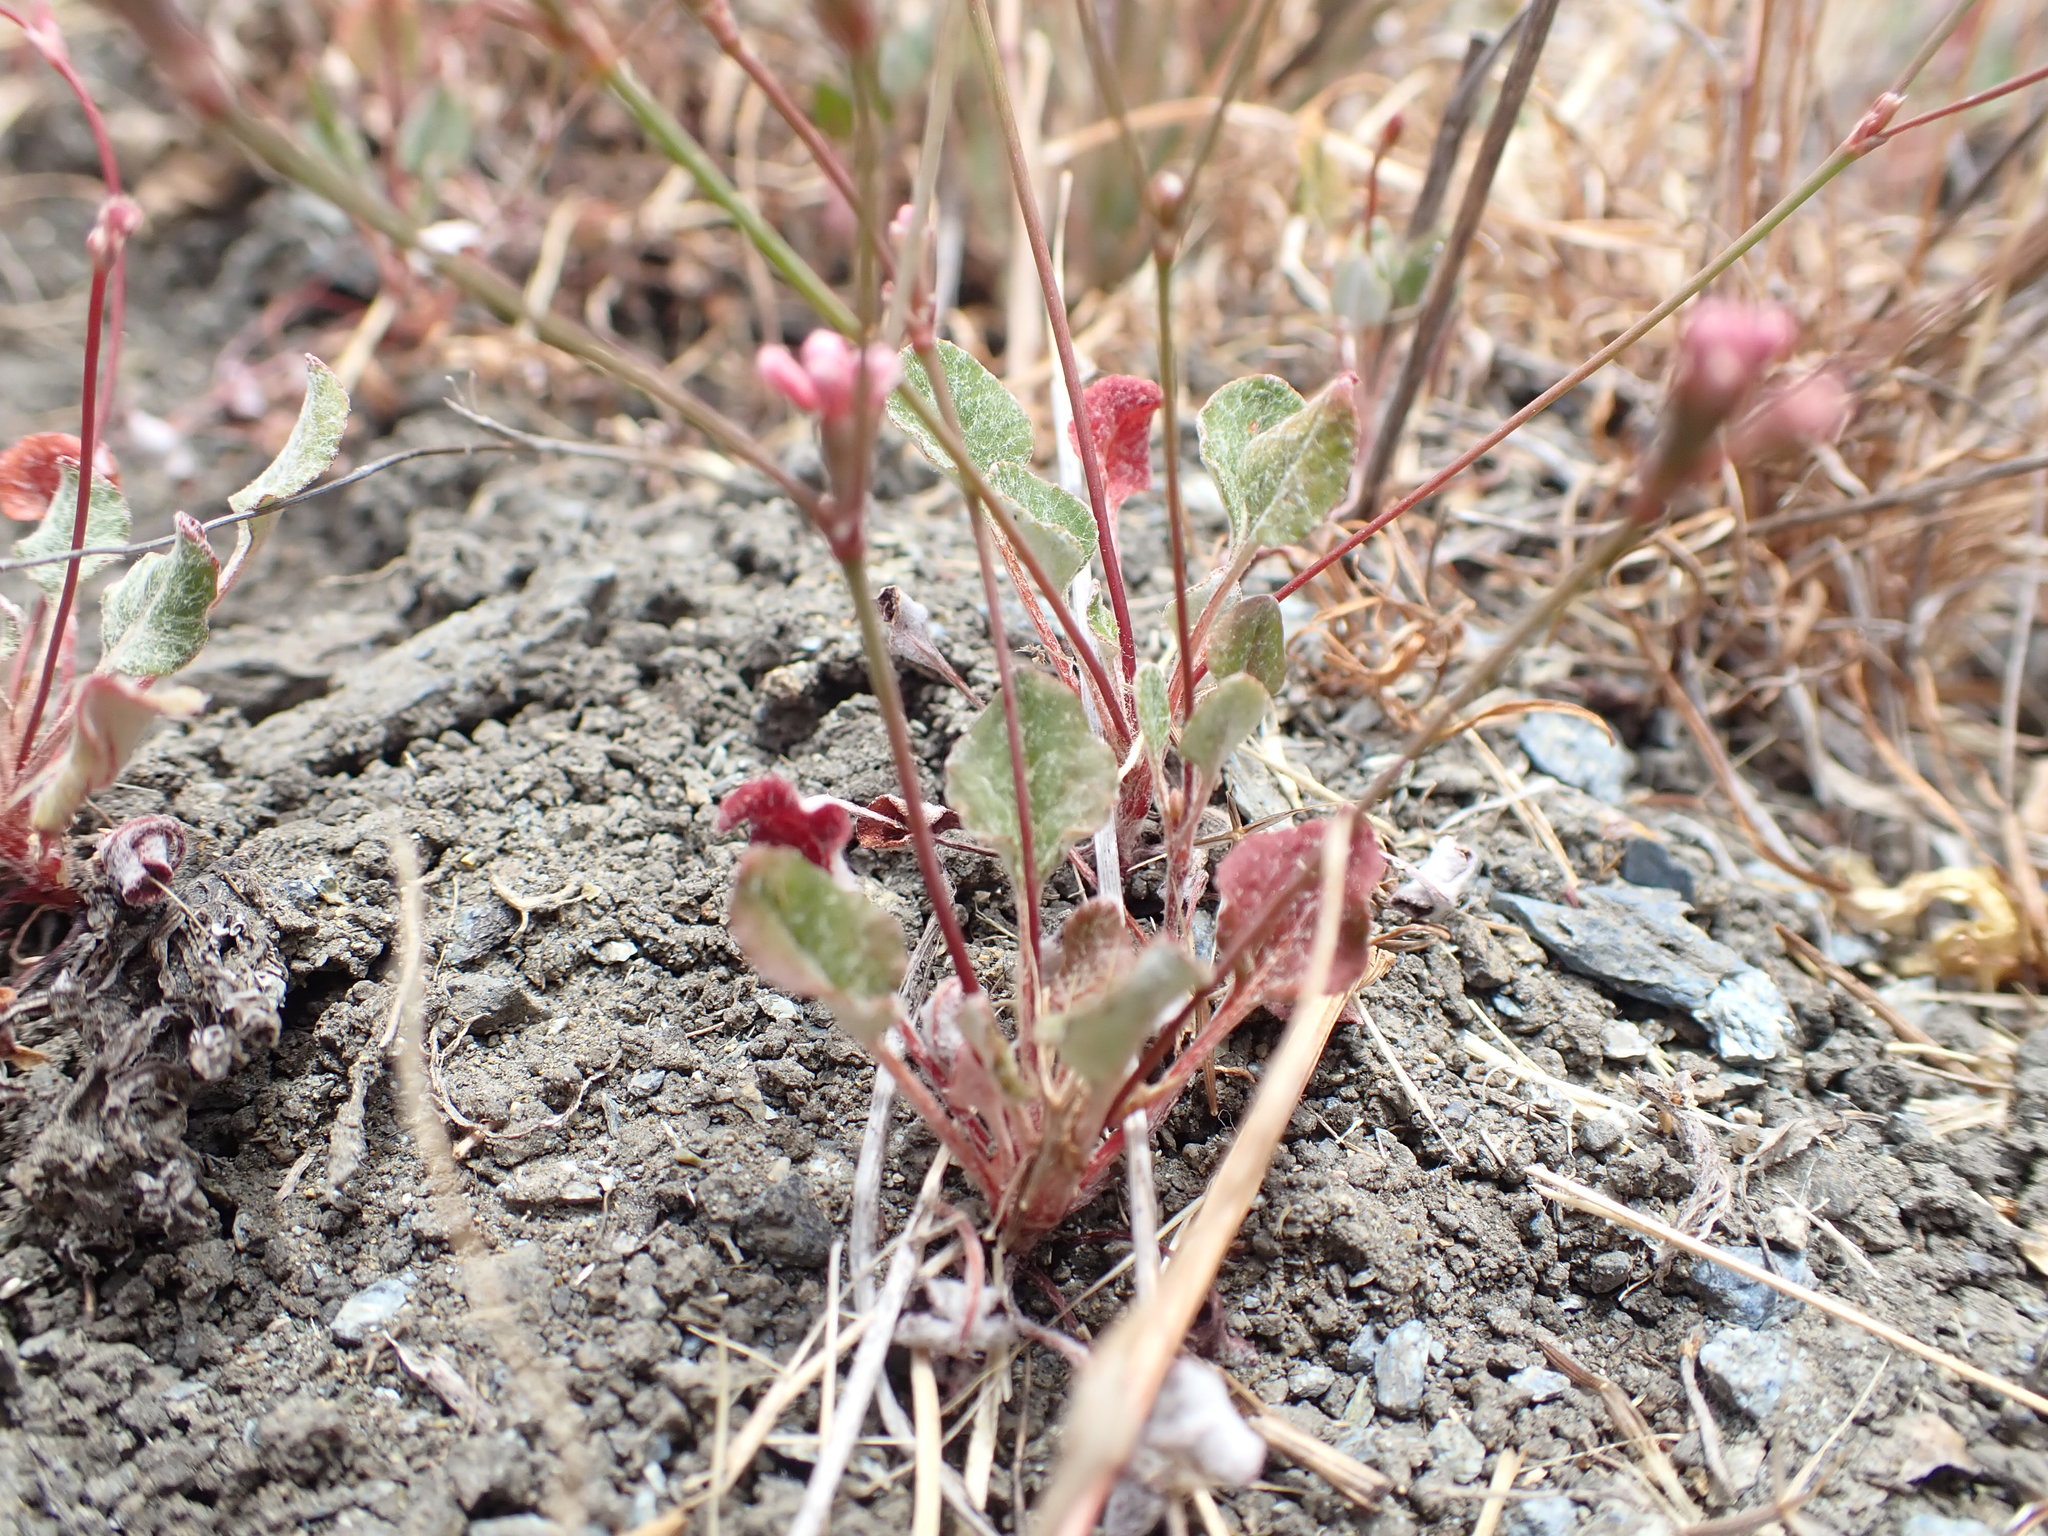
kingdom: Plantae
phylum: Tracheophyta
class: Magnoliopsida
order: Caryophyllales
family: Polygonaceae
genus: Eriogonum
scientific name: Eriogonum luteolum
